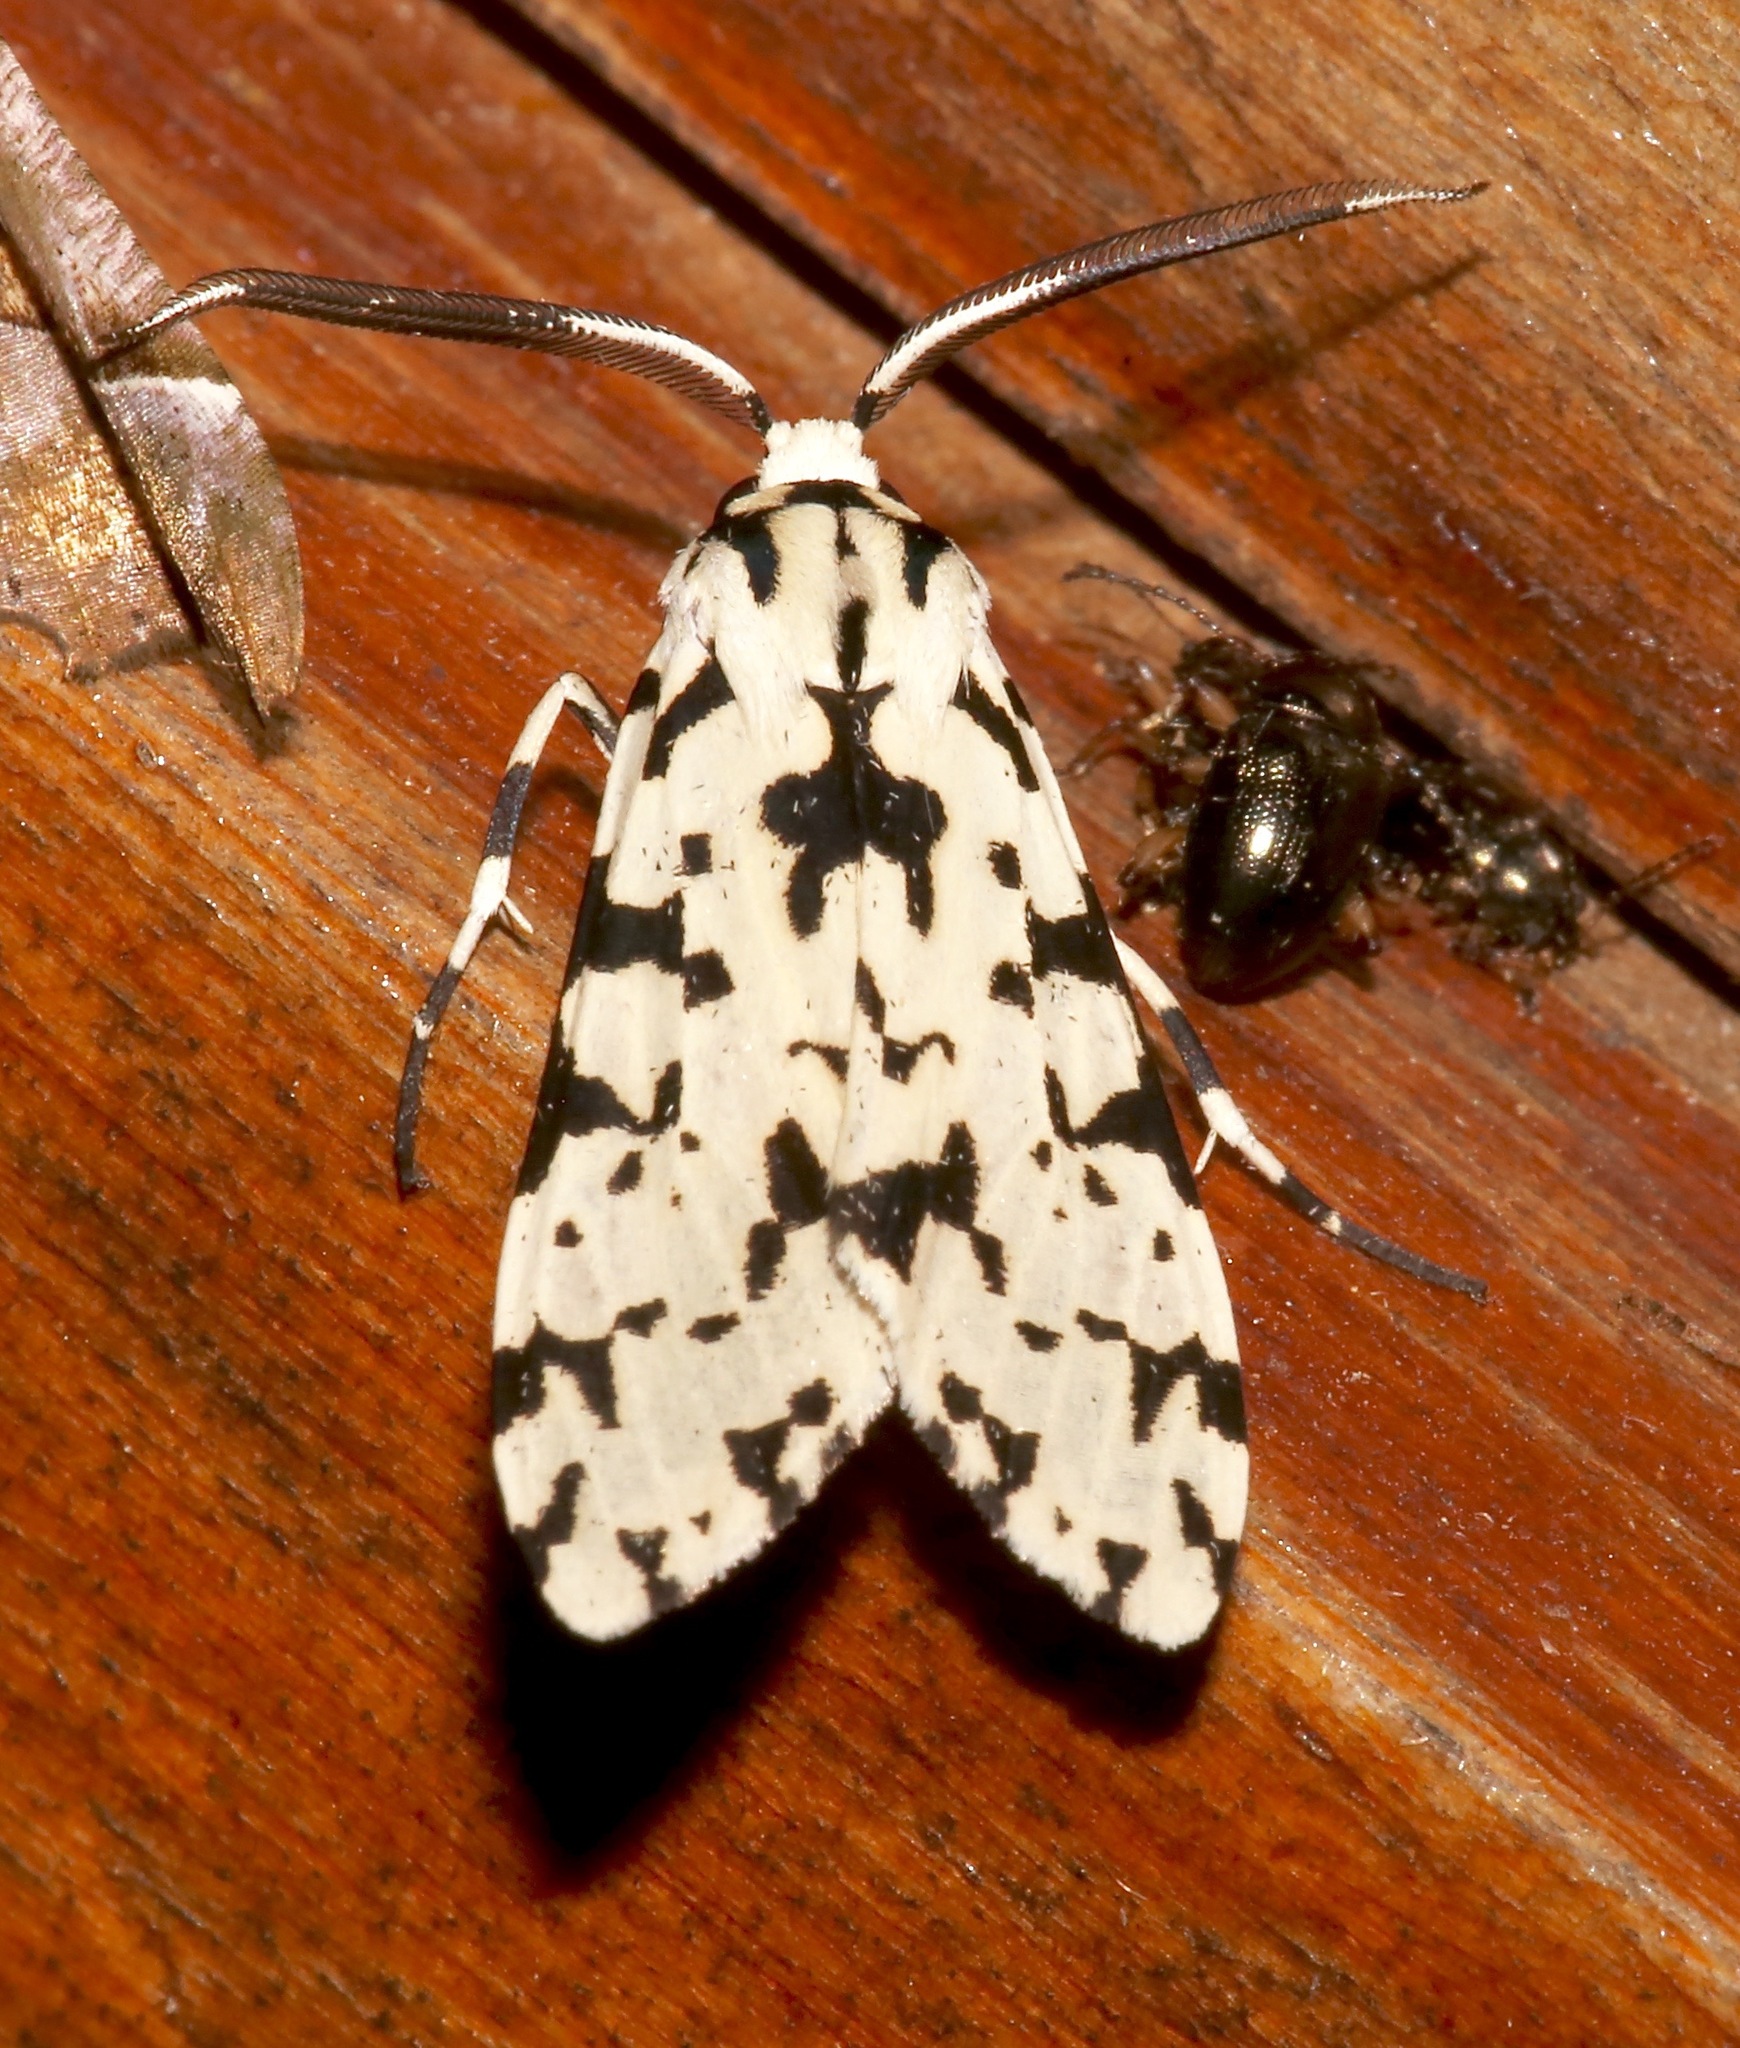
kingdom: Animalia
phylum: Arthropoda
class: Insecta
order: Lepidoptera
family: Erebidae
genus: Eucereon
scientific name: Eucereon tigrata
